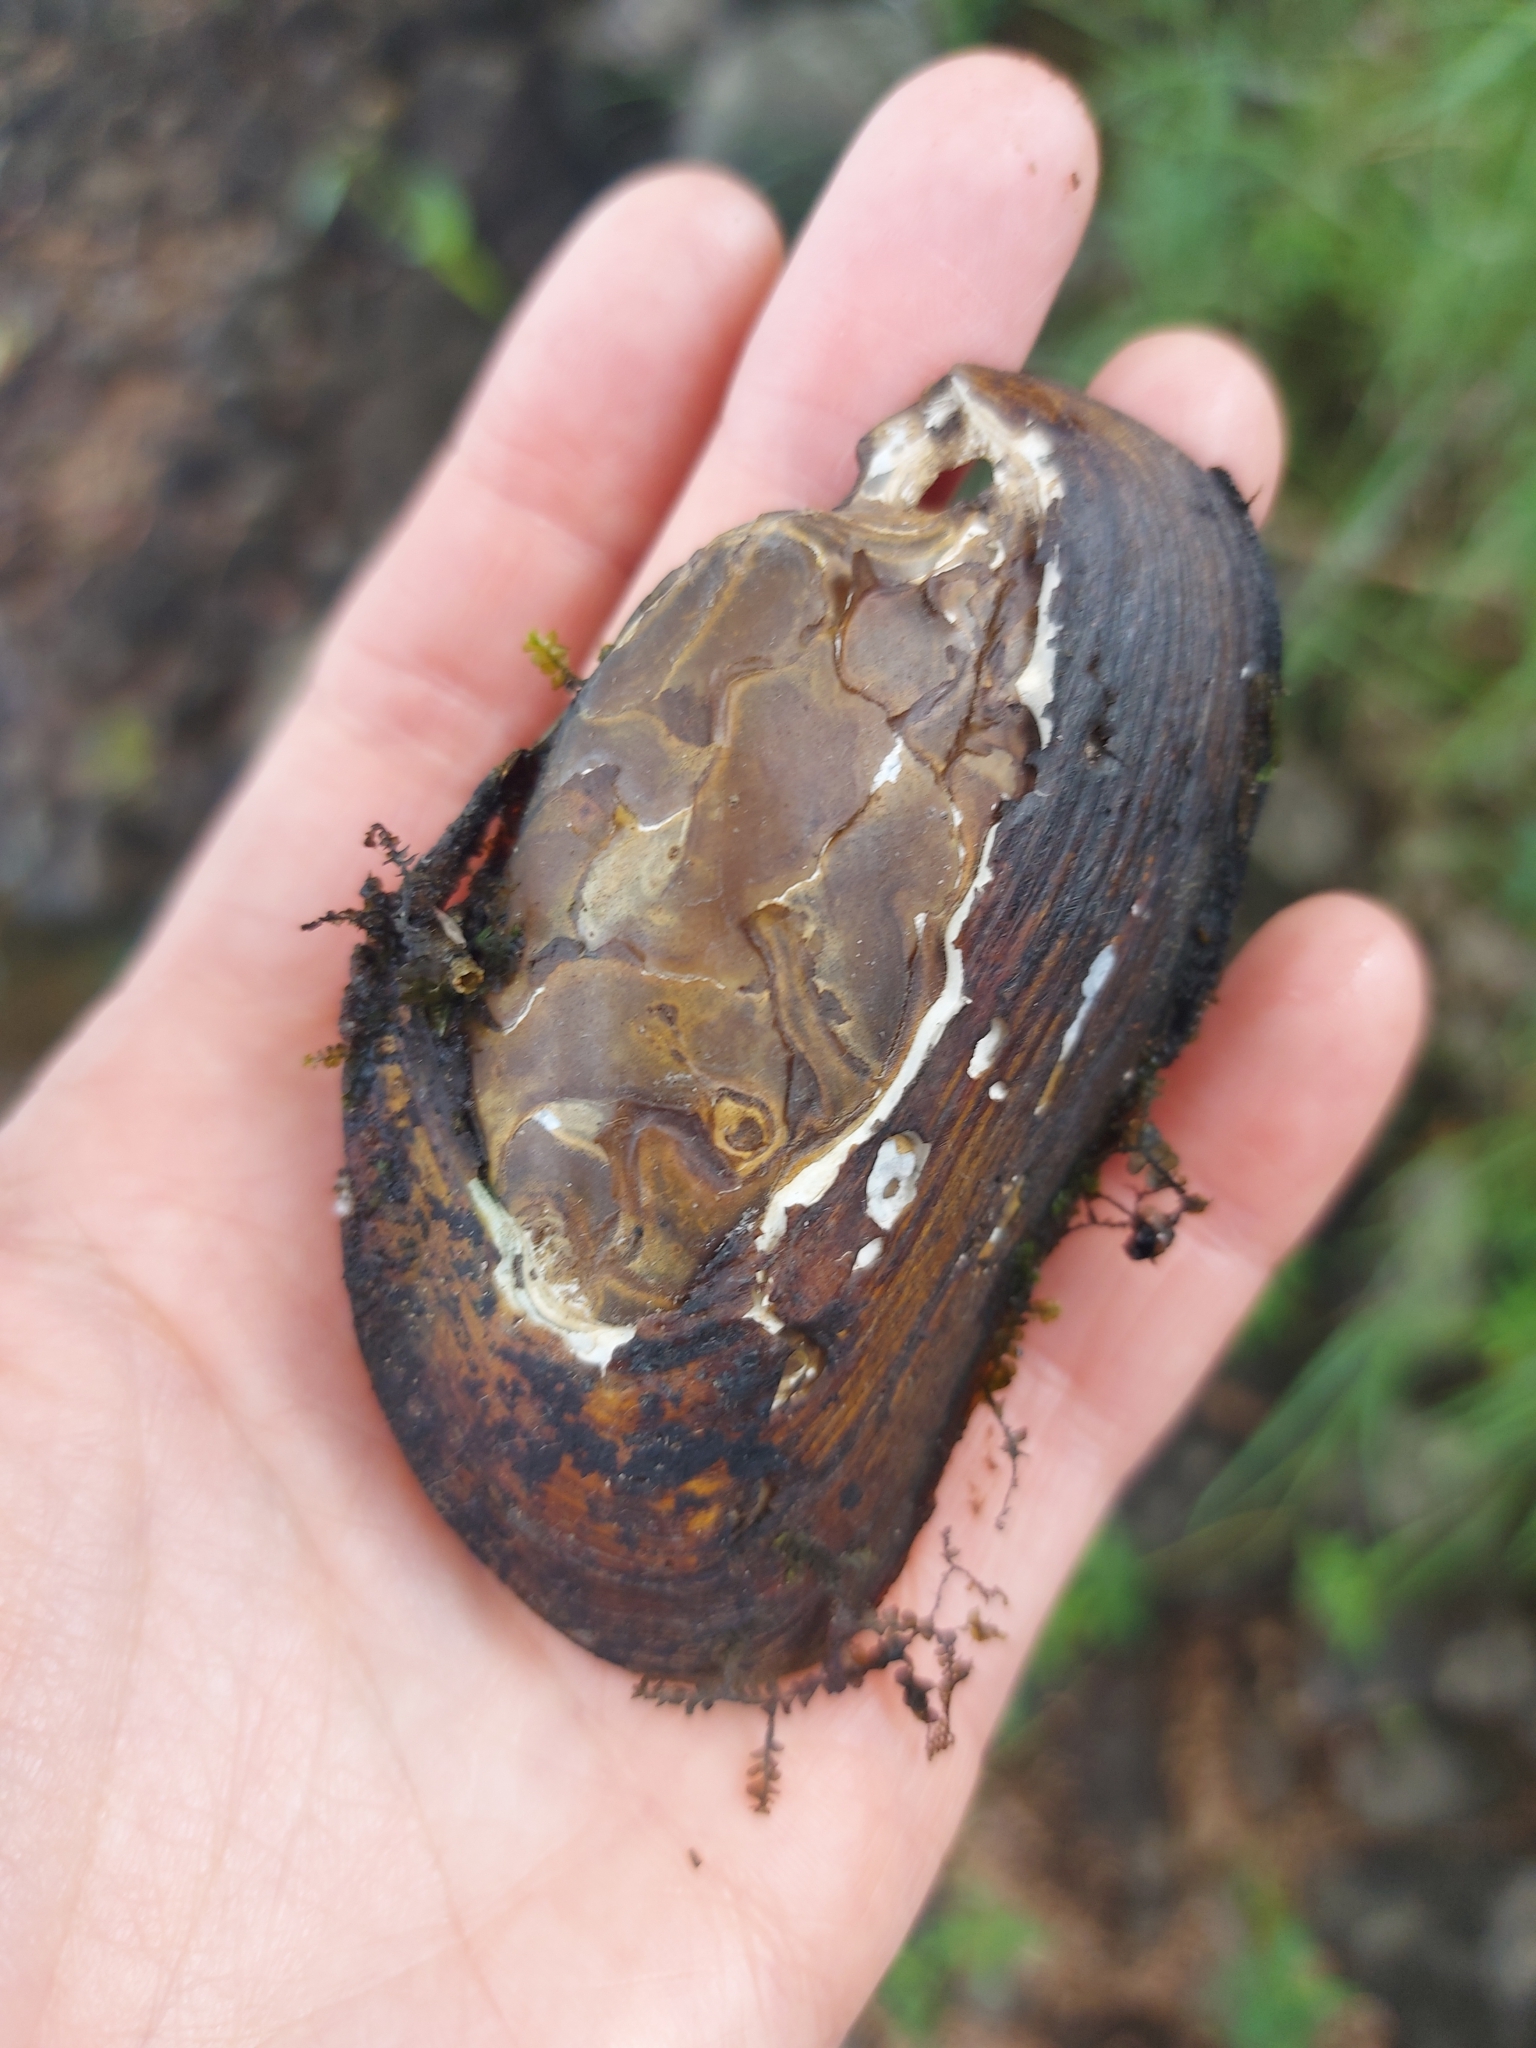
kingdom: Animalia
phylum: Mollusca
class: Bivalvia
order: Unionida
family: Unionidae
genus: Elliptio
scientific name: Elliptio complanata
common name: Eastern elliptio
